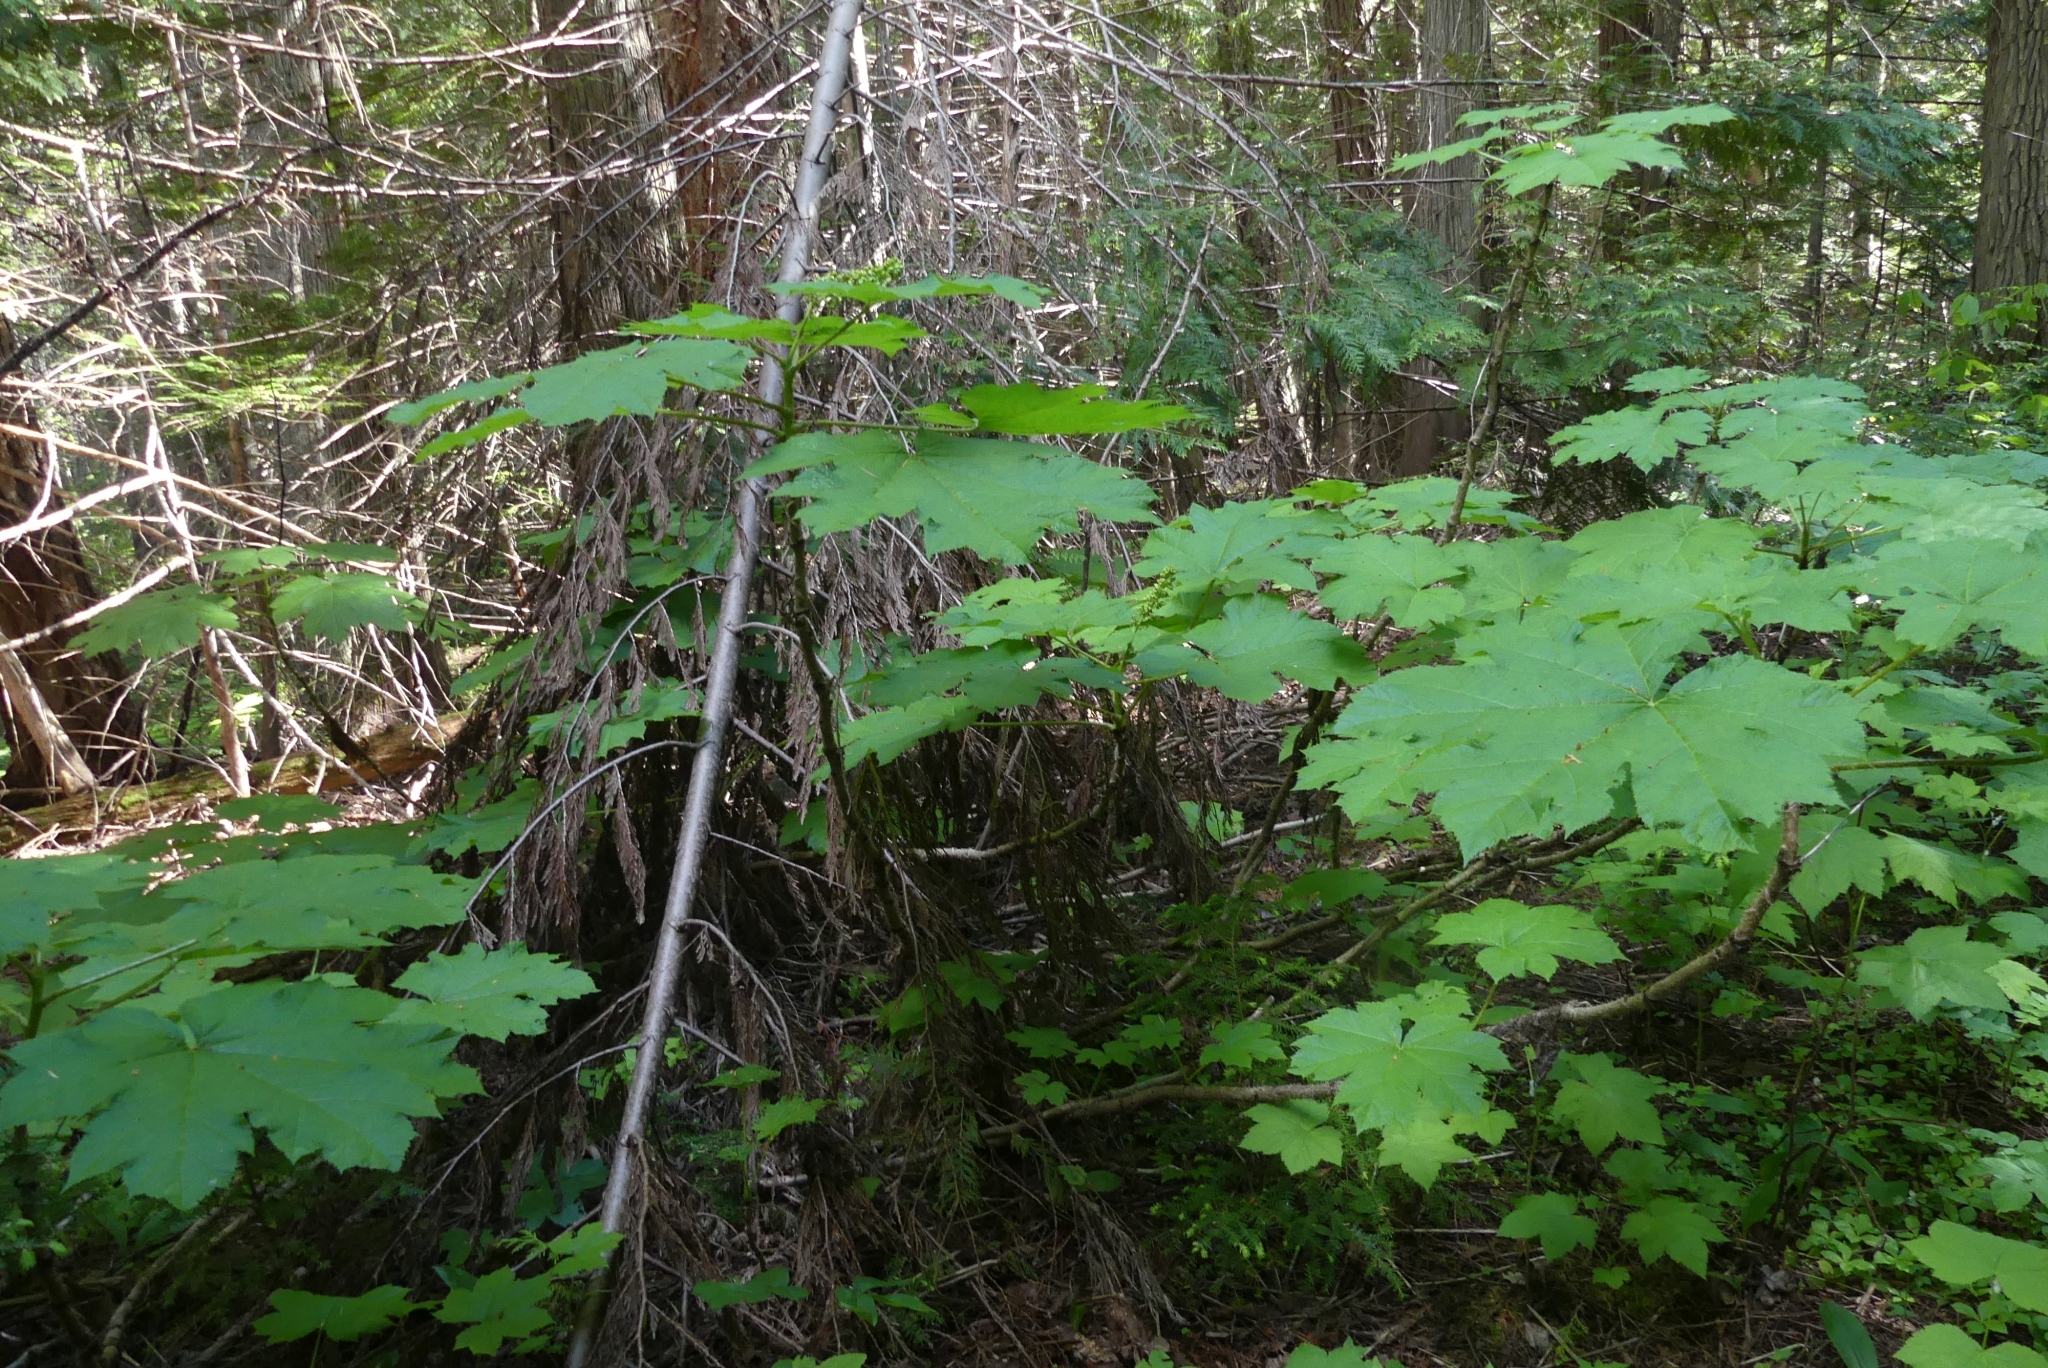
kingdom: Plantae
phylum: Tracheophyta
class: Magnoliopsida
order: Apiales
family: Araliaceae
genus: Oplopanax
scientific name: Oplopanax horridus
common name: Devil's walking-stick
